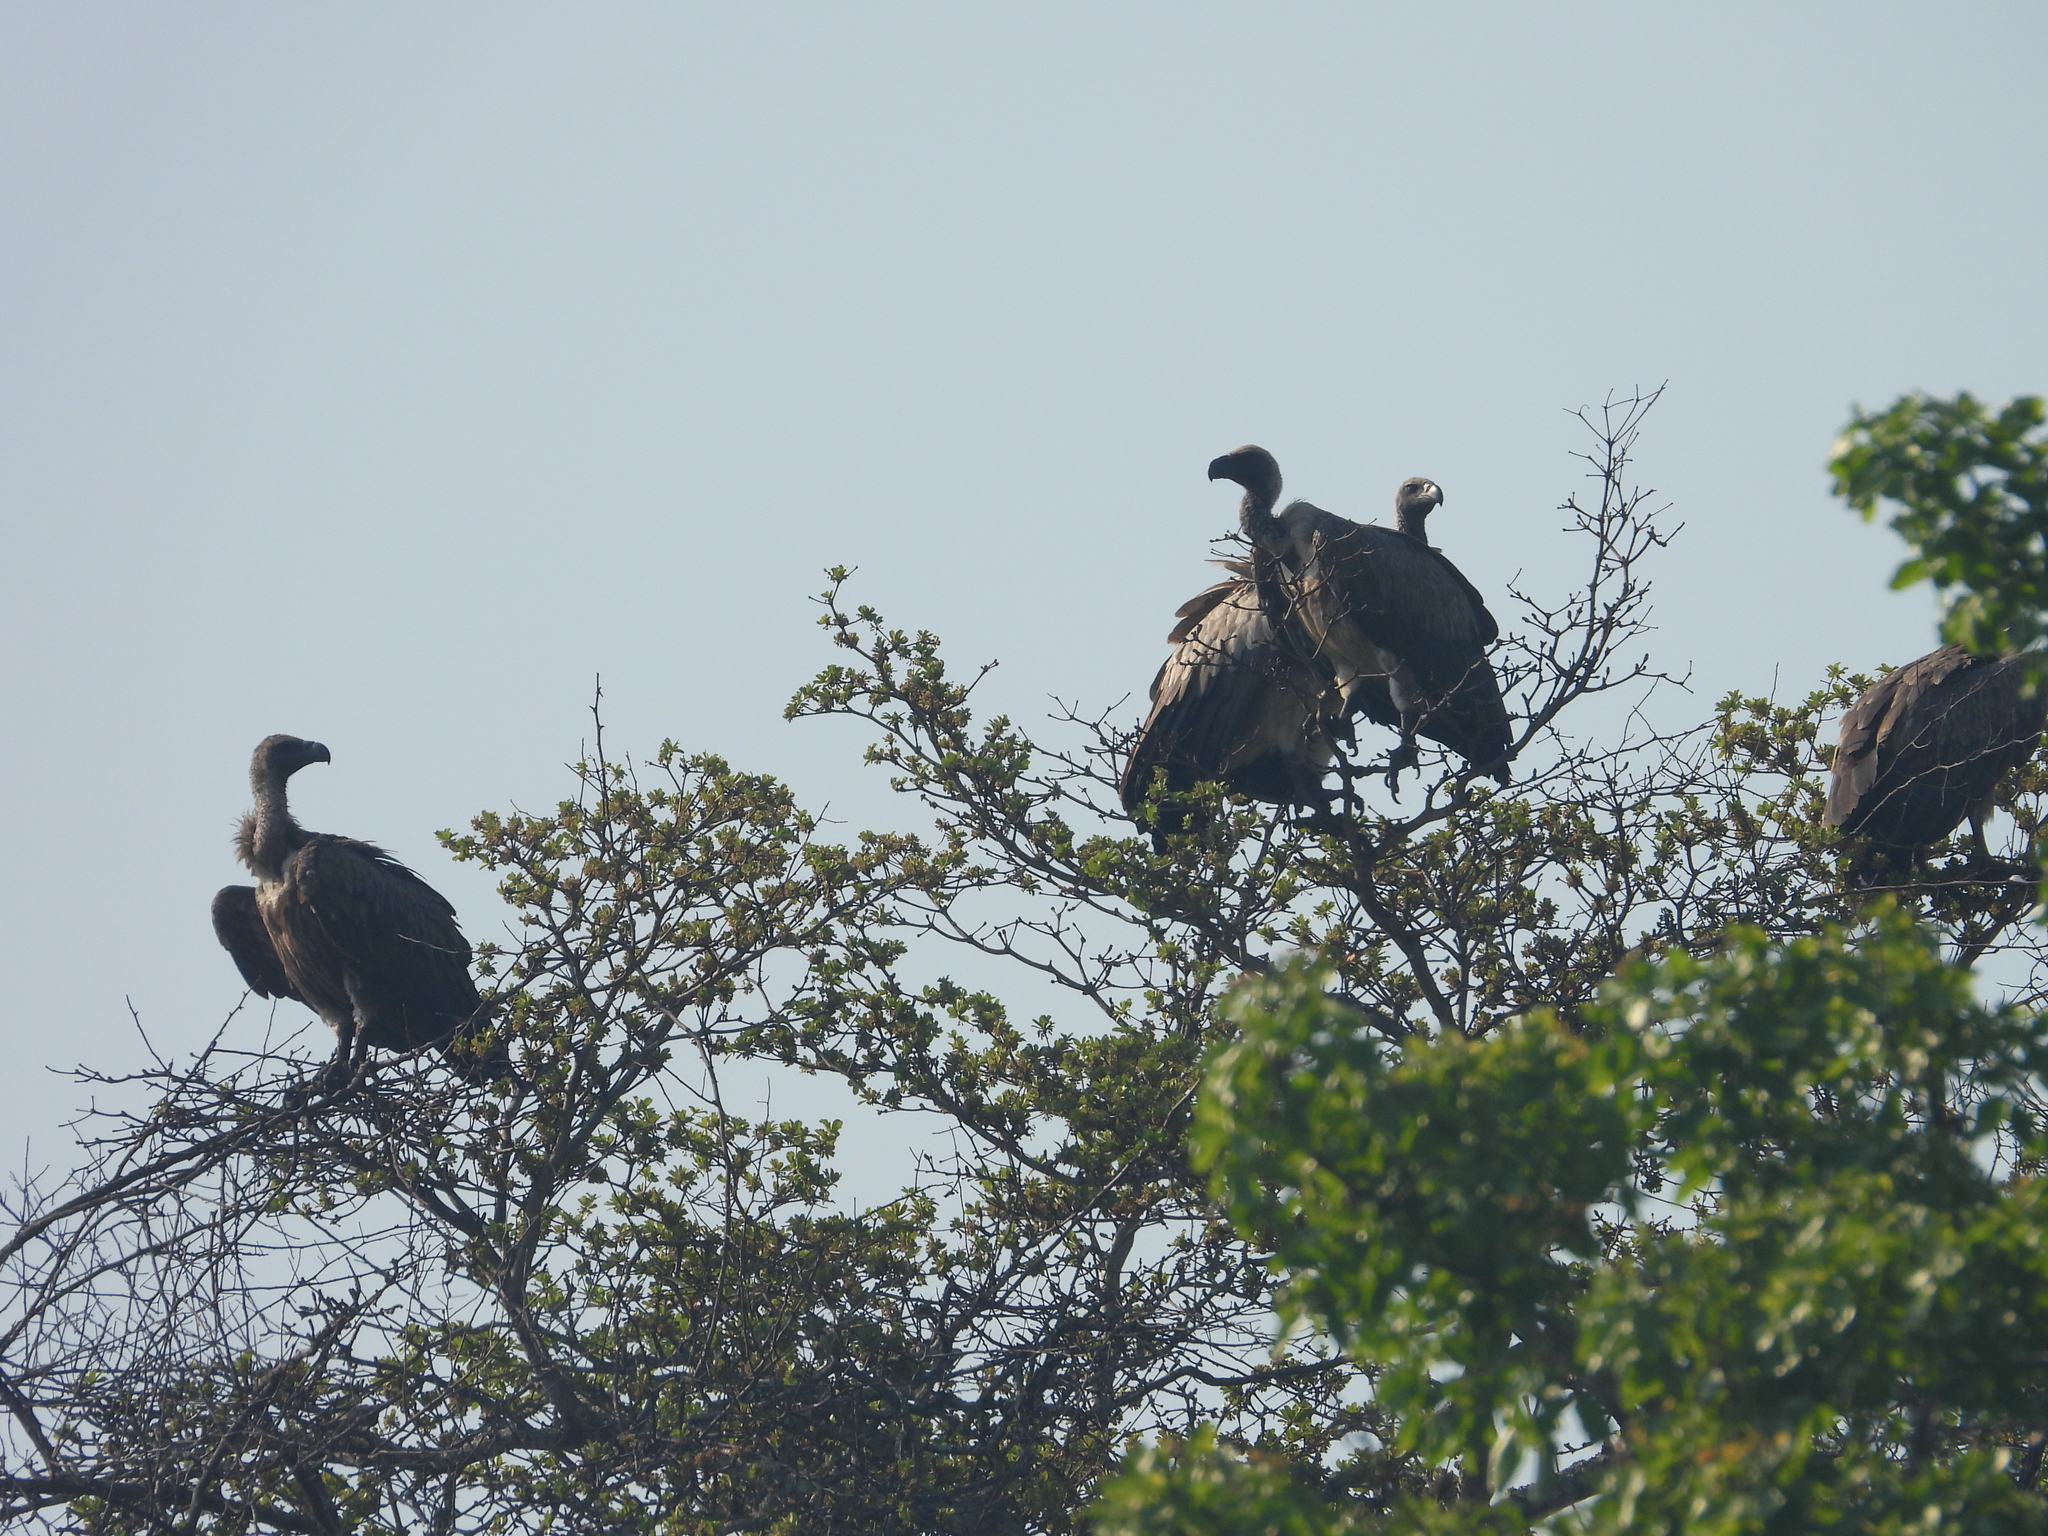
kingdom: Animalia
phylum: Chordata
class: Aves
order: Accipitriformes
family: Accipitridae
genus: Gyps
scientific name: Gyps africanus
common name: White-backed vulture
